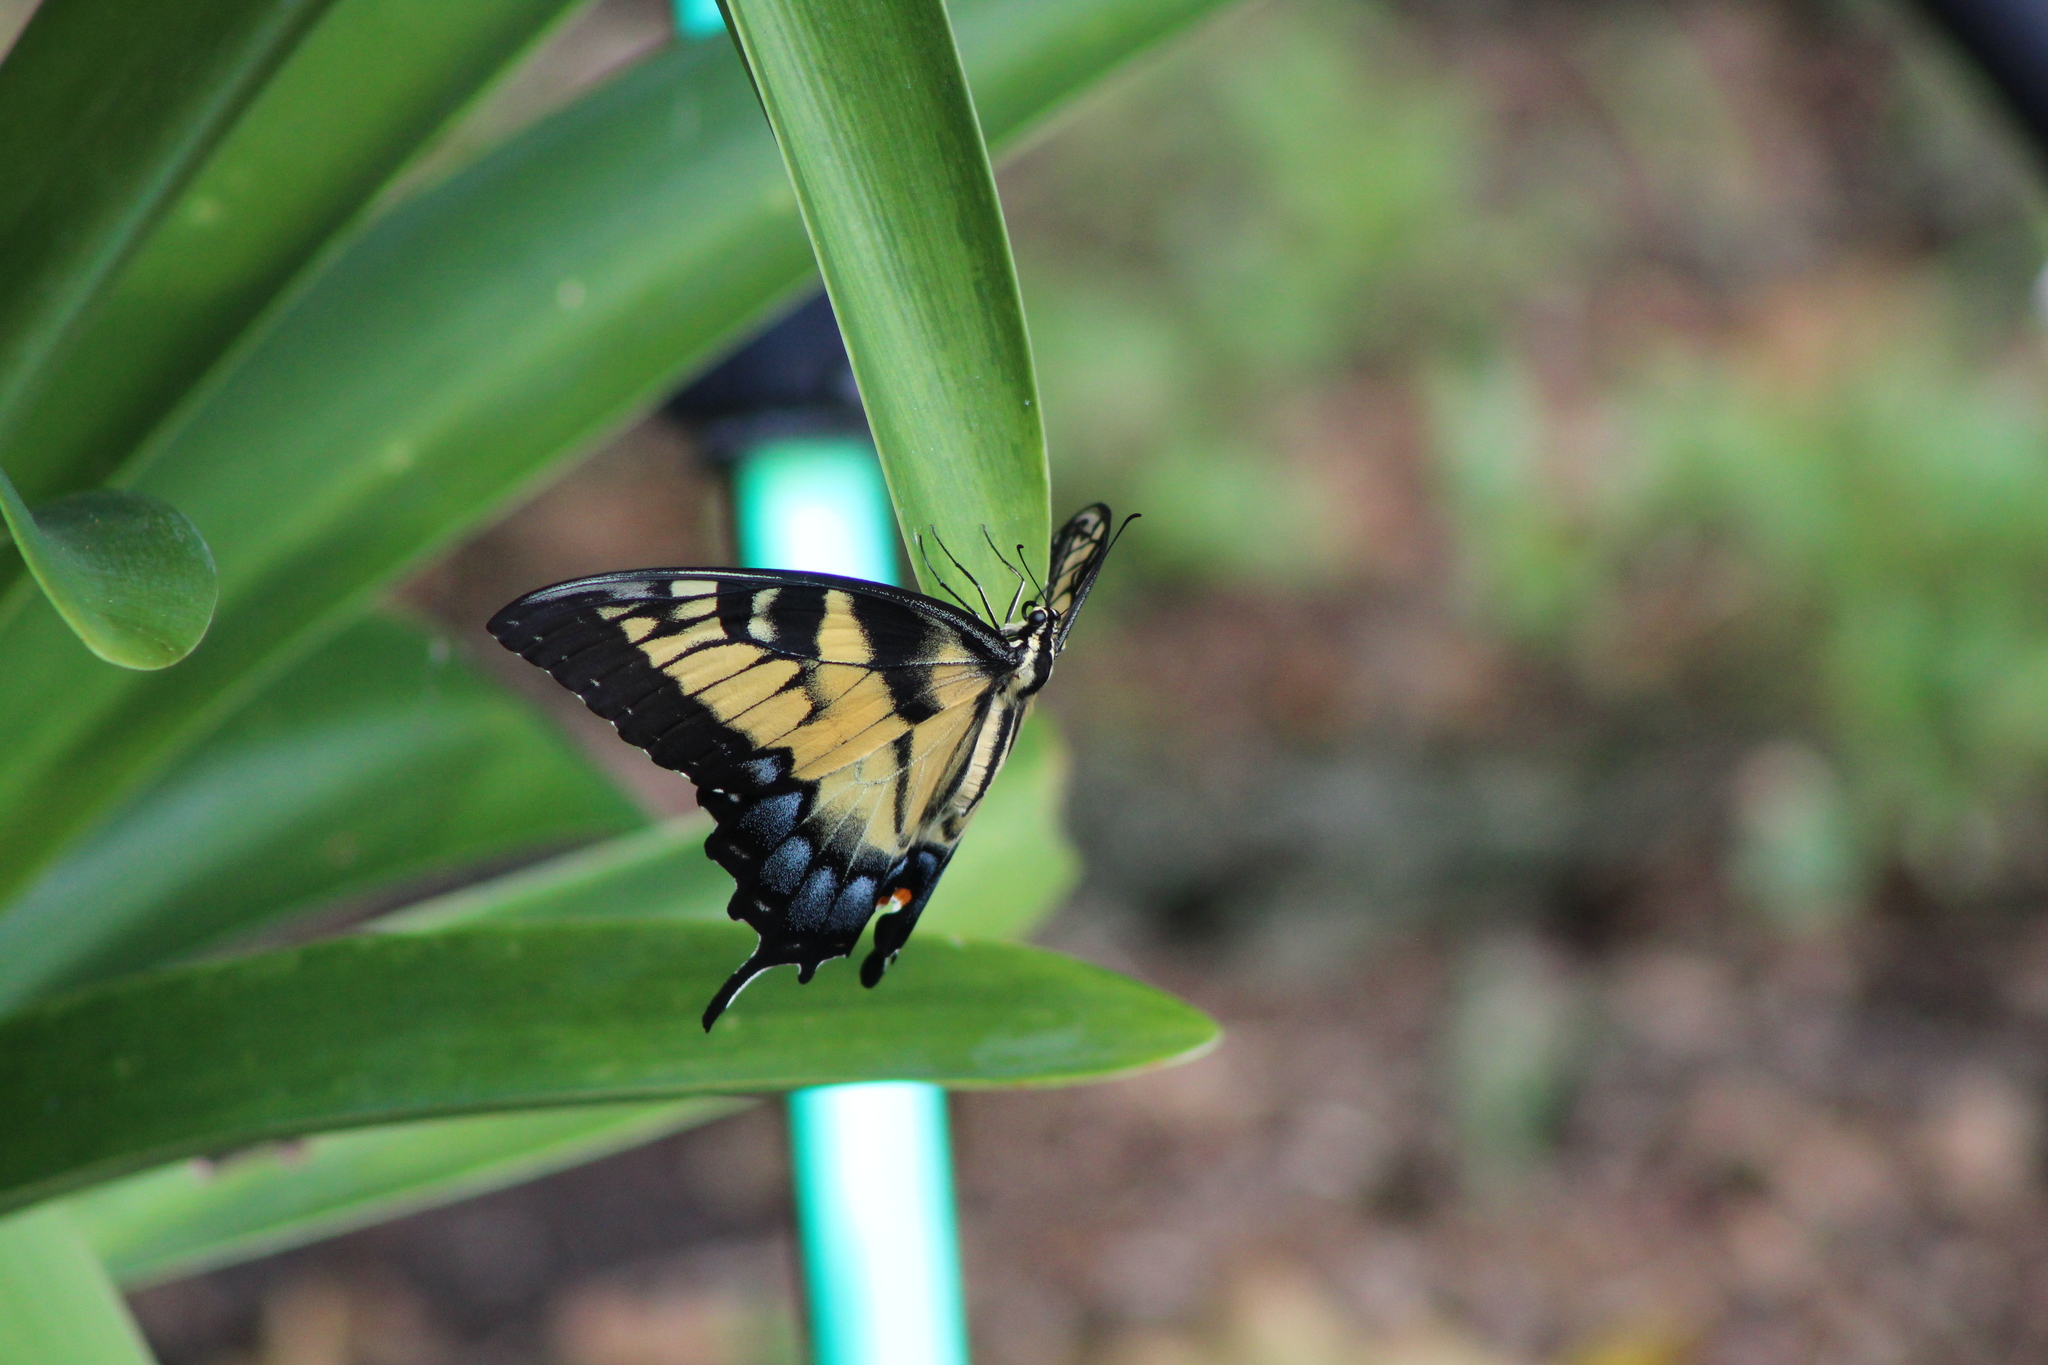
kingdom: Animalia
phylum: Arthropoda
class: Insecta
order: Lepidoptera
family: Papilionidae
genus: Papilio
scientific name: Papilio glaucus
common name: Tiger swallowtail
